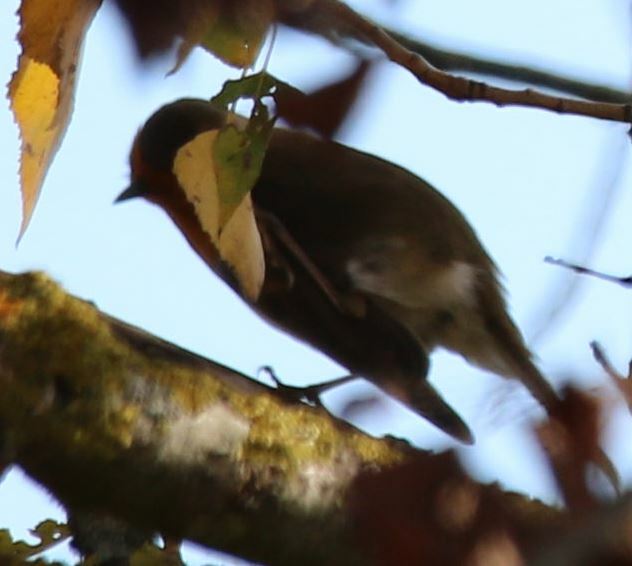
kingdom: Animalia
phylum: Chordata
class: Aves
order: Passeriformes
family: Muscicapidae
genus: Erithacus
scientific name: Erithacus rubecula
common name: European robin
